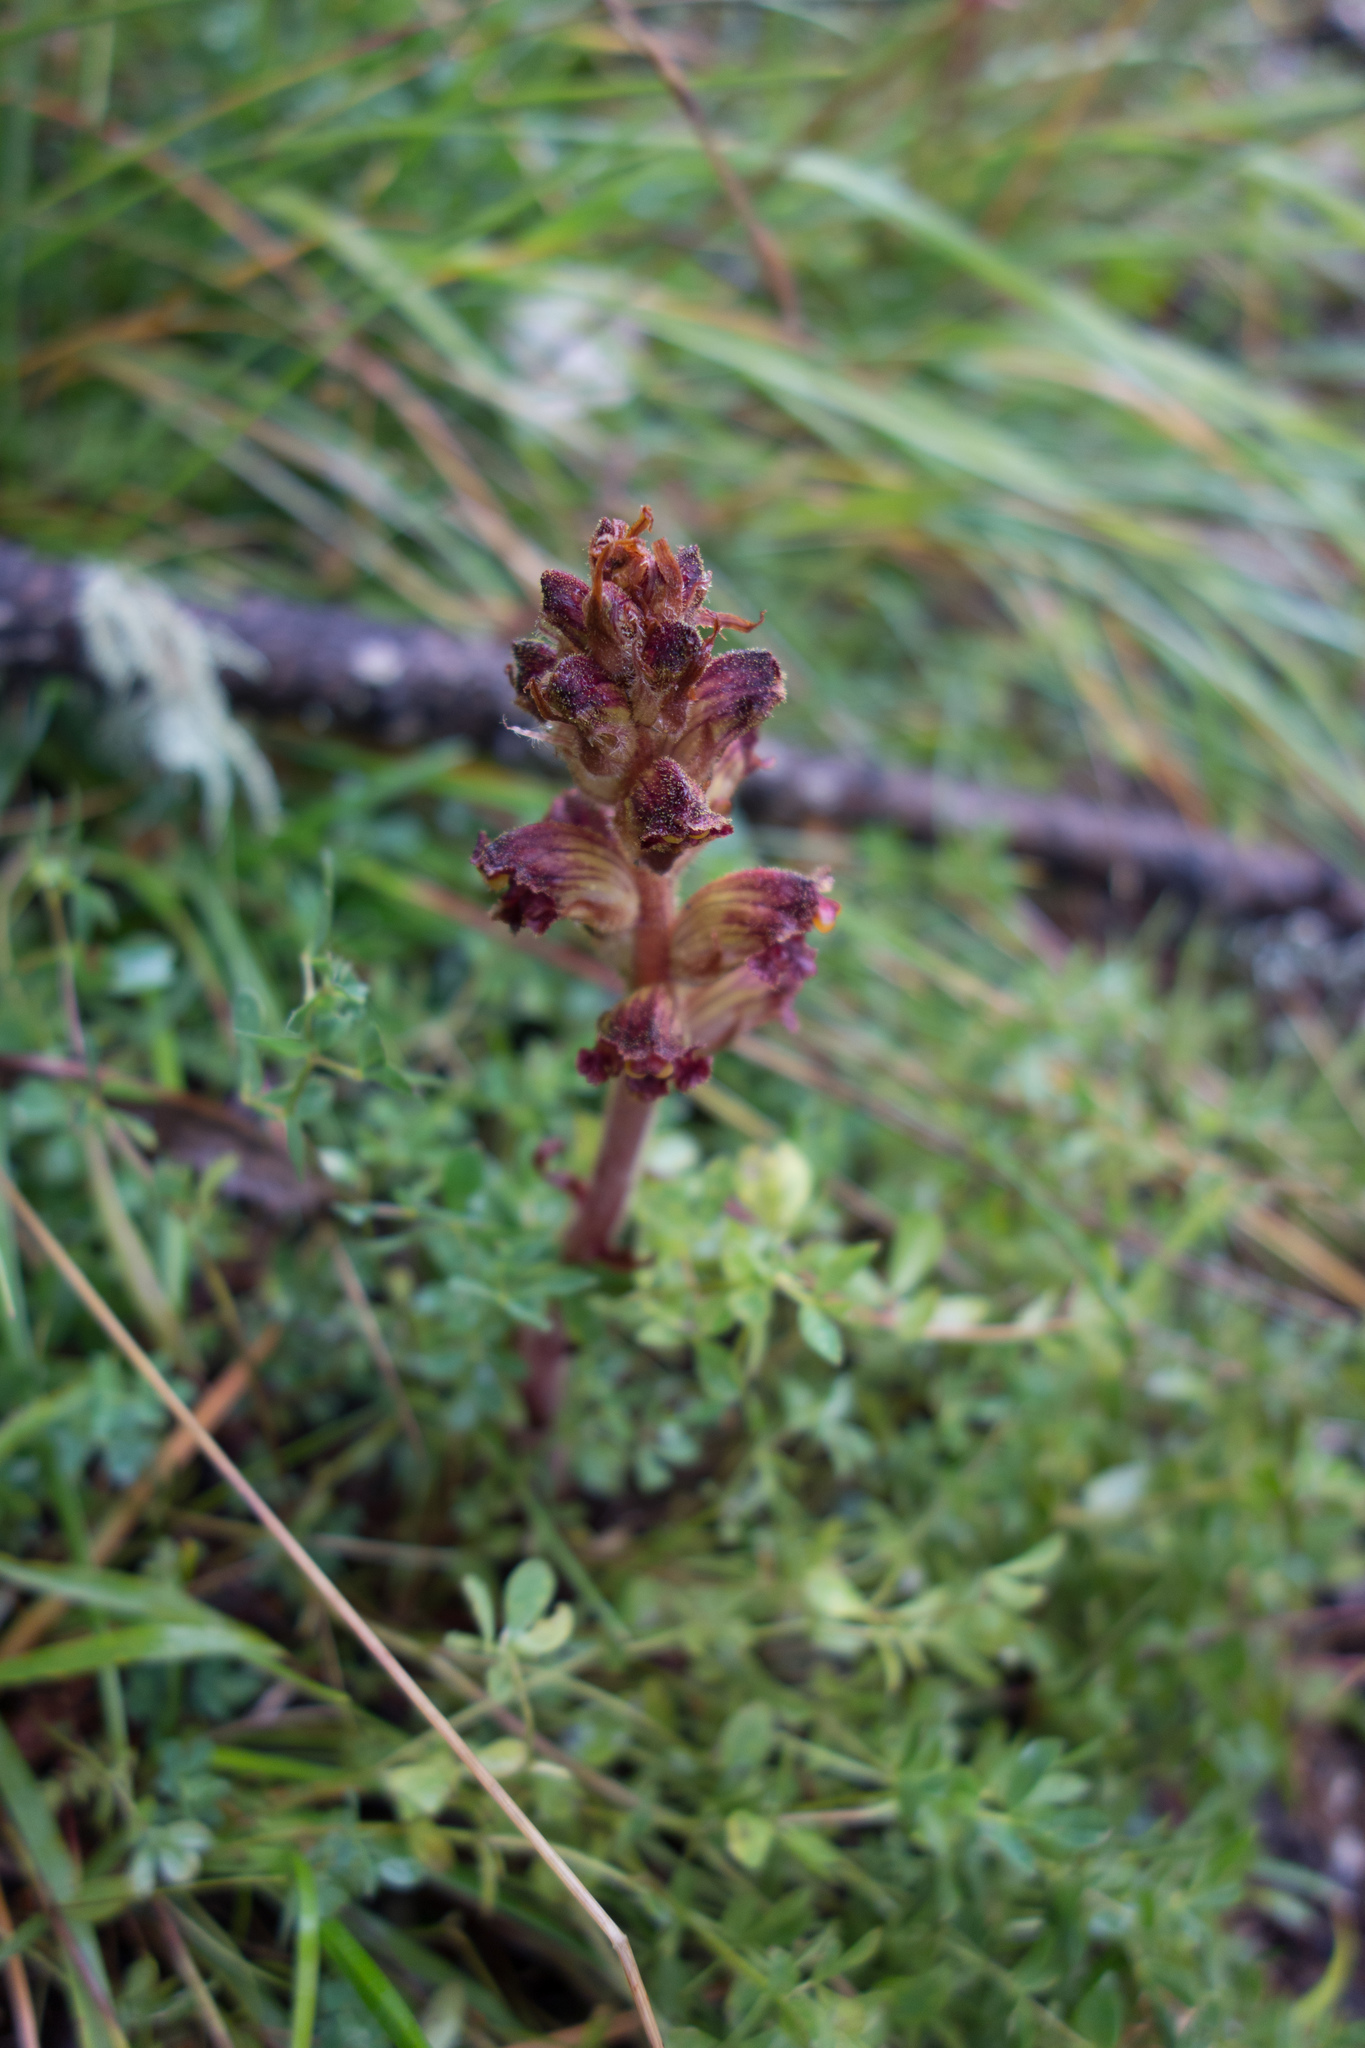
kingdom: Plantae
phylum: Tracheophyta
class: Magnoliopsida
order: Lamiales
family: Orobanchaceae
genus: Orobanche
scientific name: Orobanche gracilis
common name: Slender broomrape
